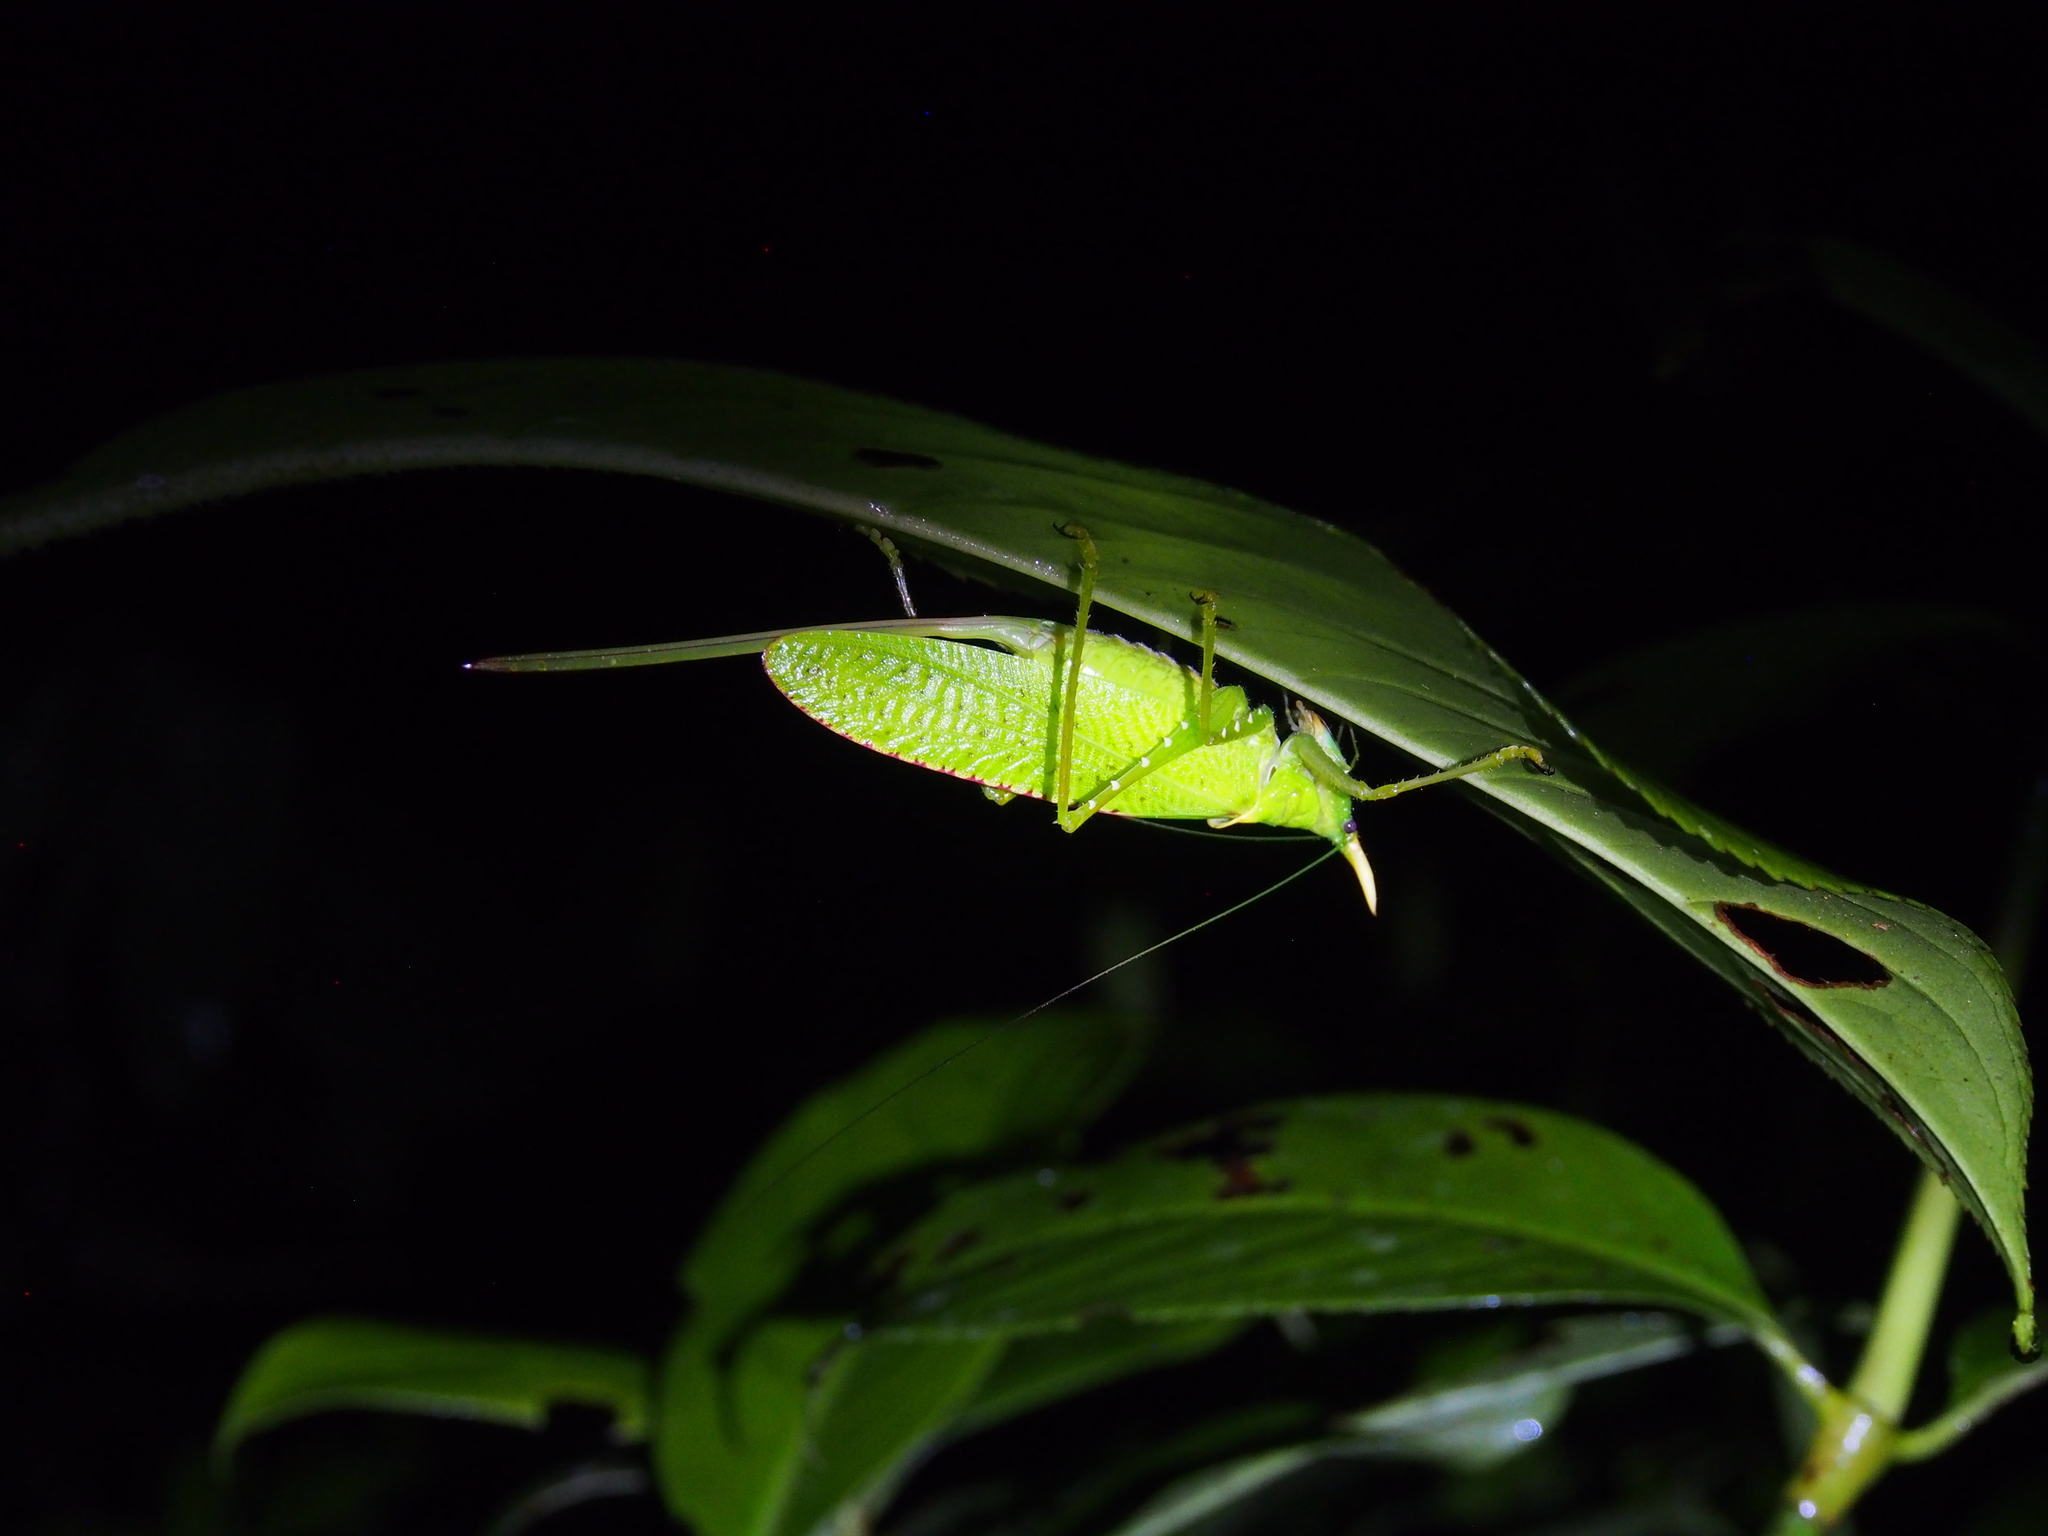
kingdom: Animalia
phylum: Arthropoda
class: Insecta
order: Orthoptera
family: Tettigoniidae
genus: Copiphora
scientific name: Copiphora rhinoceros
